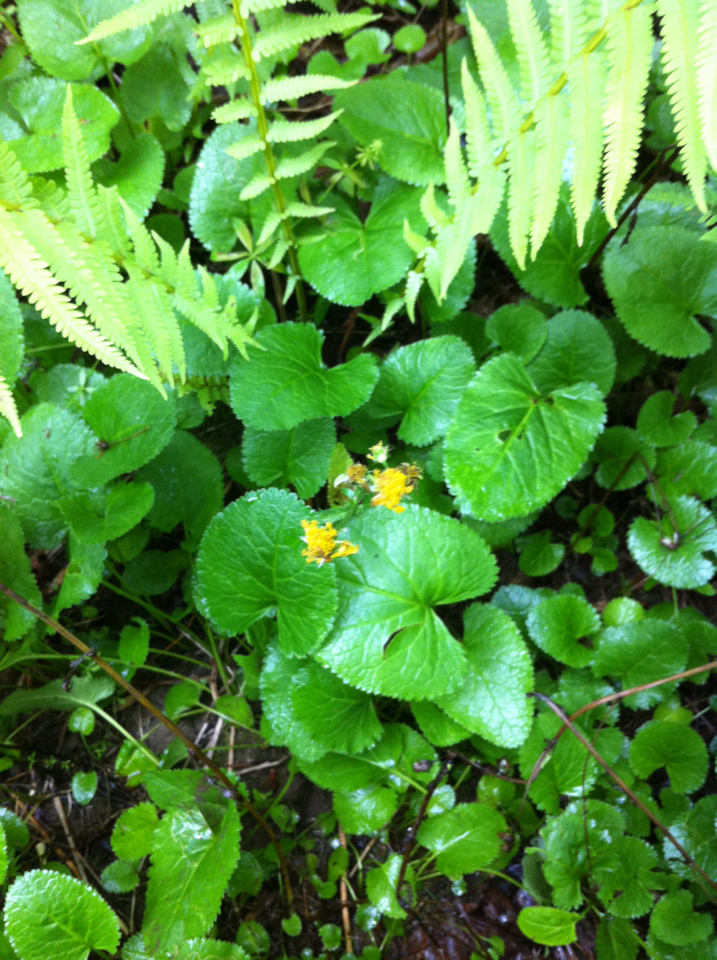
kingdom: Plantae
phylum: Tracheophyta
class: Magnoliopsida
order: Asterales
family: Asteraceae
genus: Packera
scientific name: Packera aurea
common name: Golden groundsel
